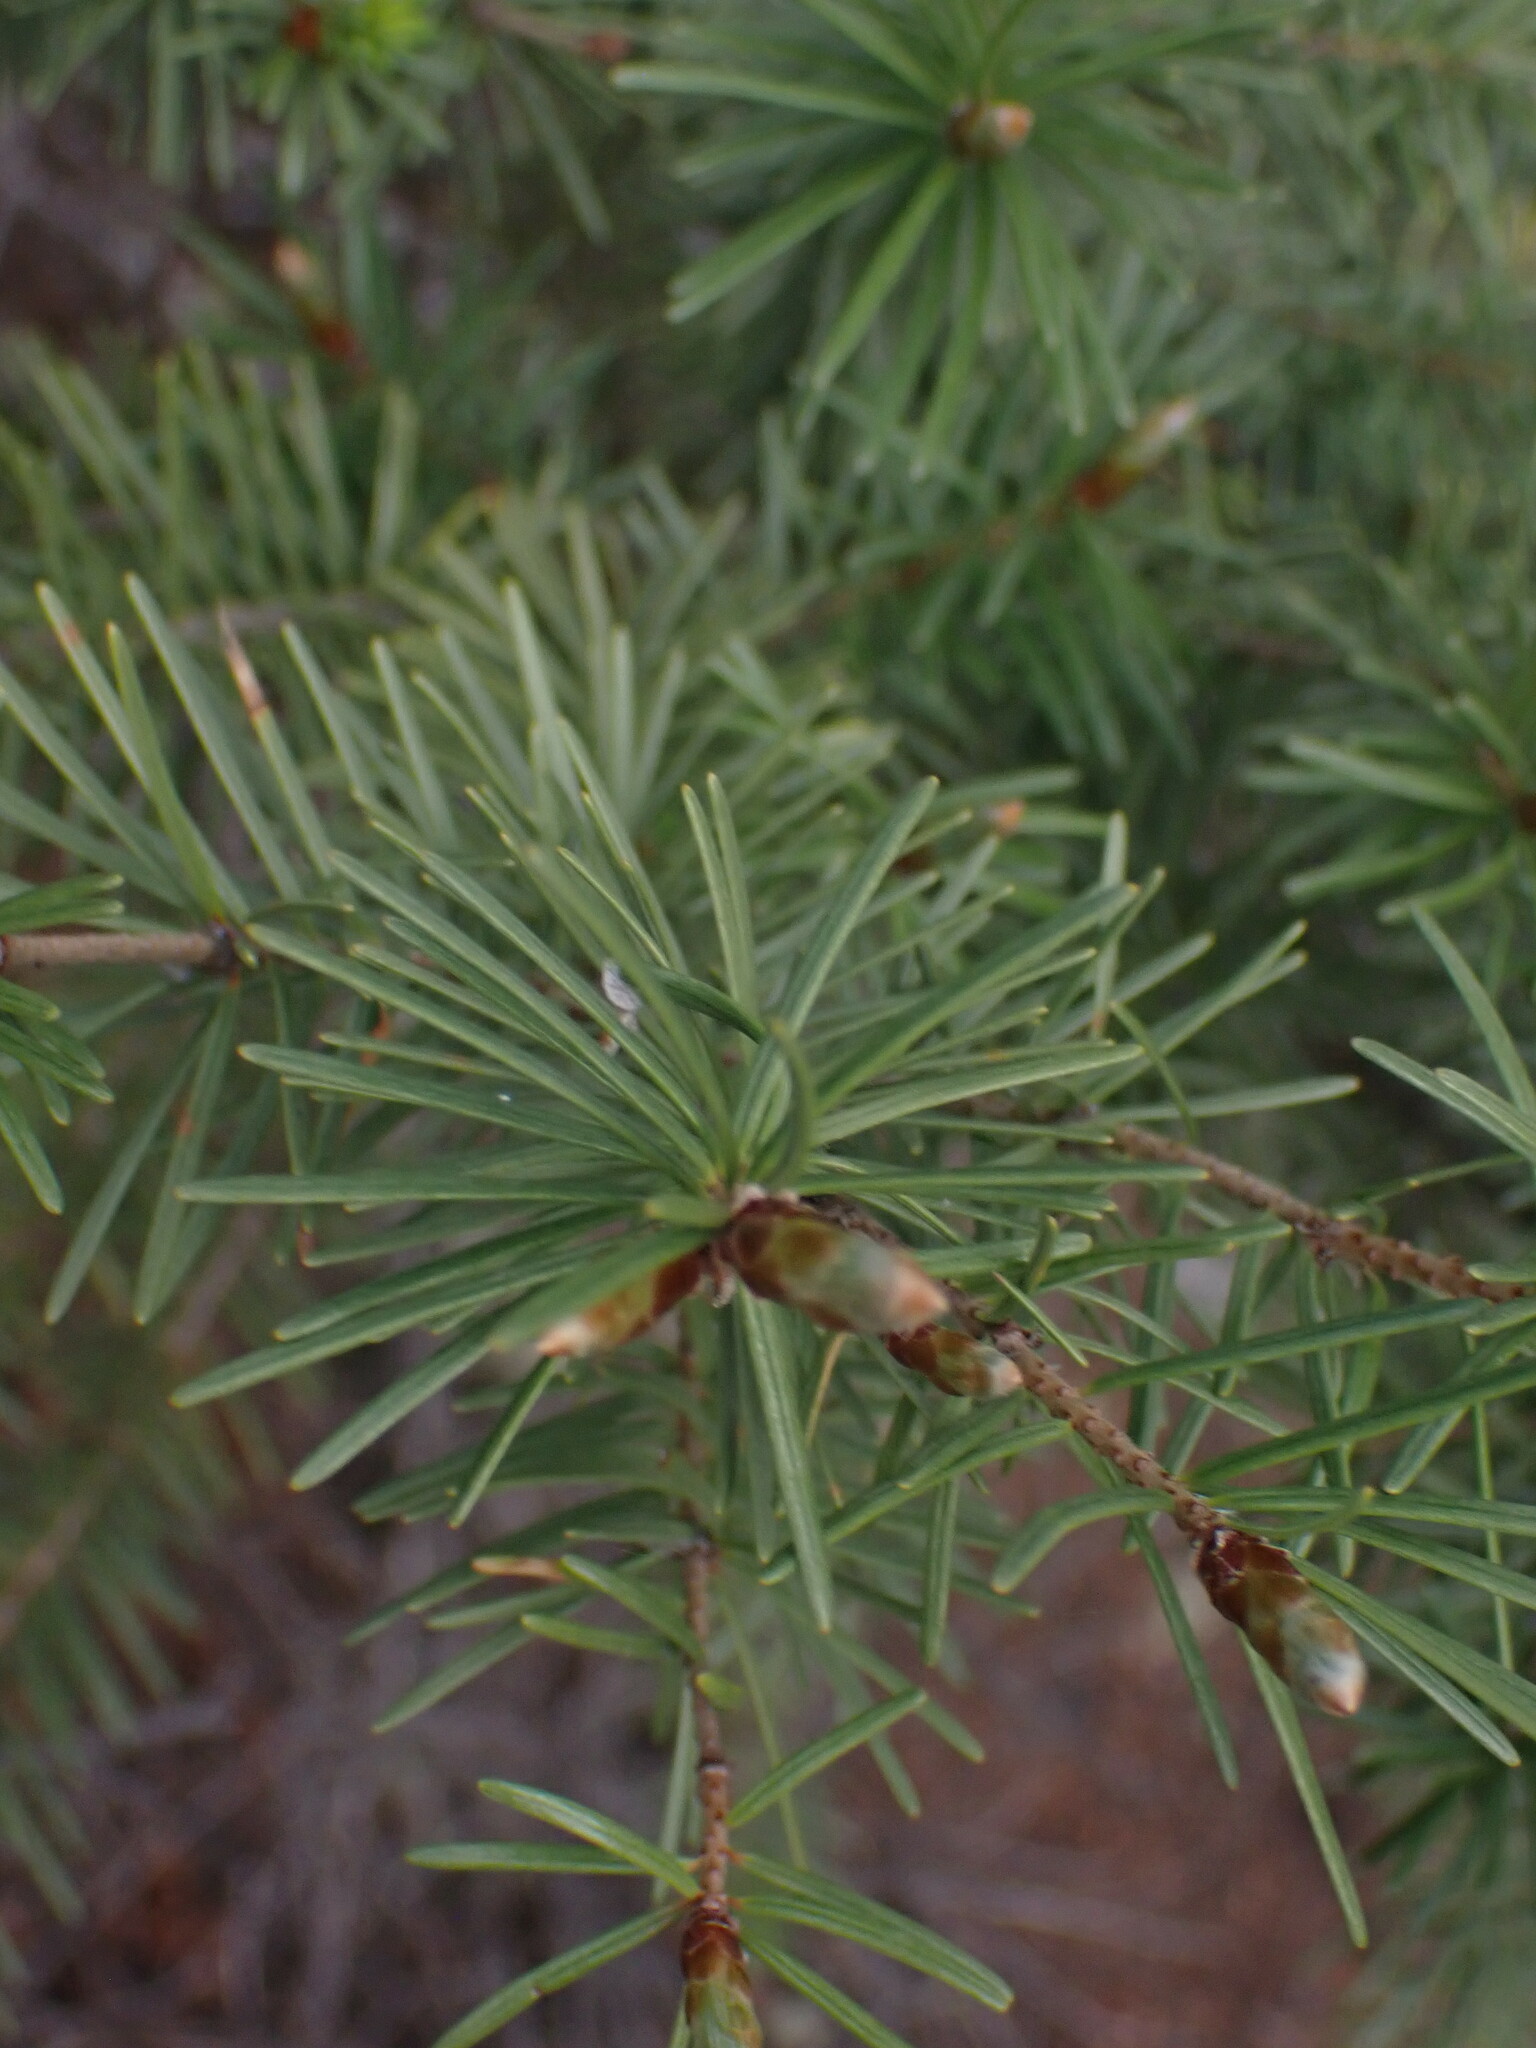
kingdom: Plantae
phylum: Tracheophyta
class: Pinopsida
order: Pinales
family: Pinaceae
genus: Pseudotsuga
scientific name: Pseudotsuga menziesii
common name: Douglas fir
